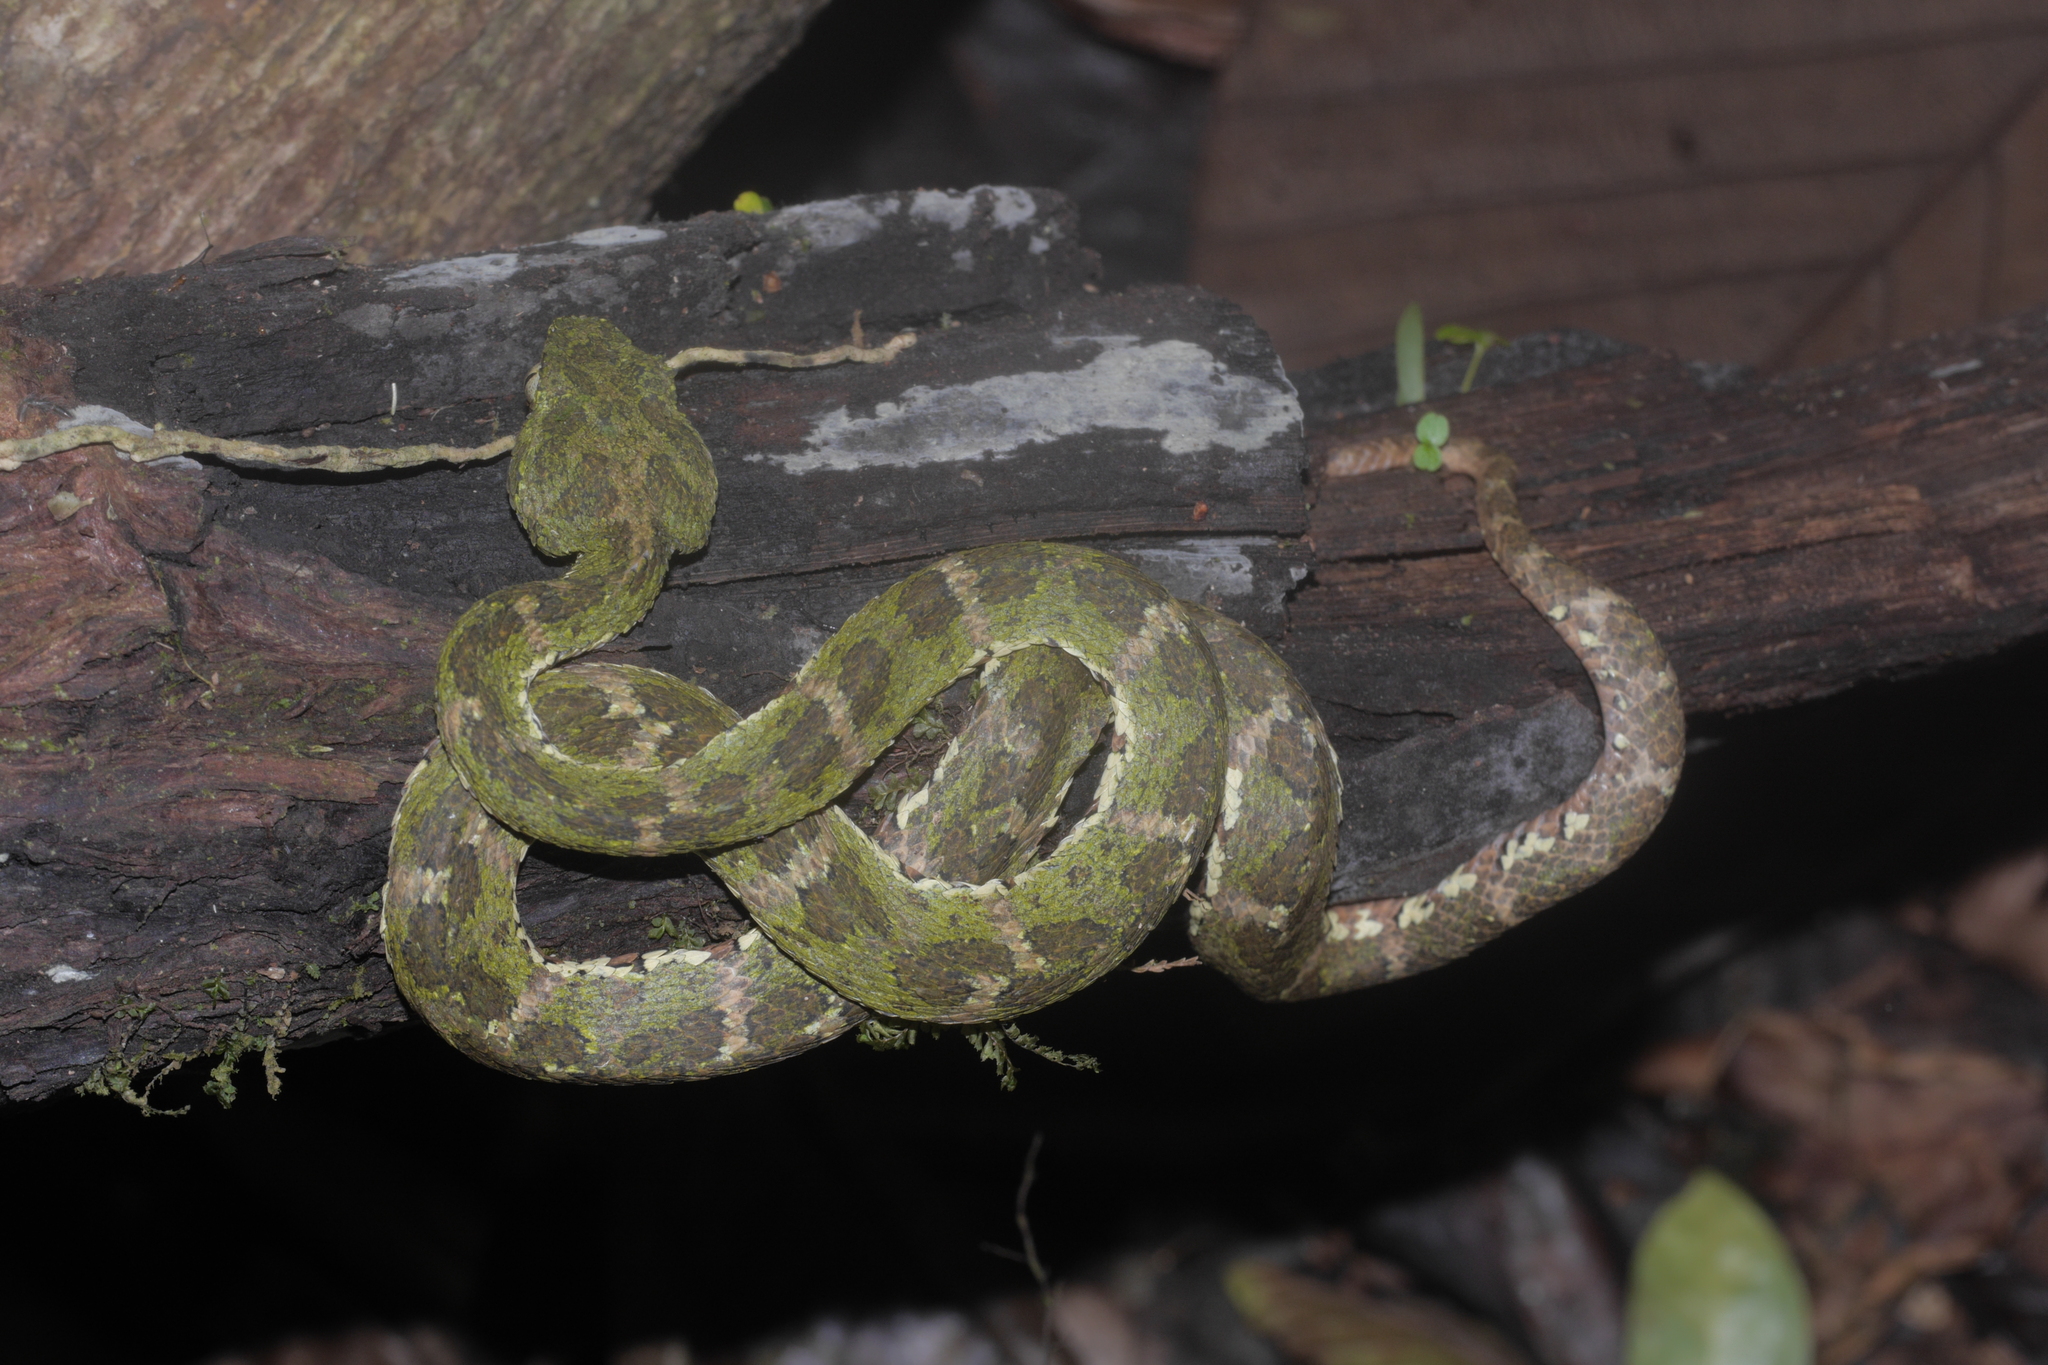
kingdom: Animalia
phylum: Chordata
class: Squamata
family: Viperidae
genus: Bothriechis
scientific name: Bothriechis schlegelii
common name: Eyelash viper
